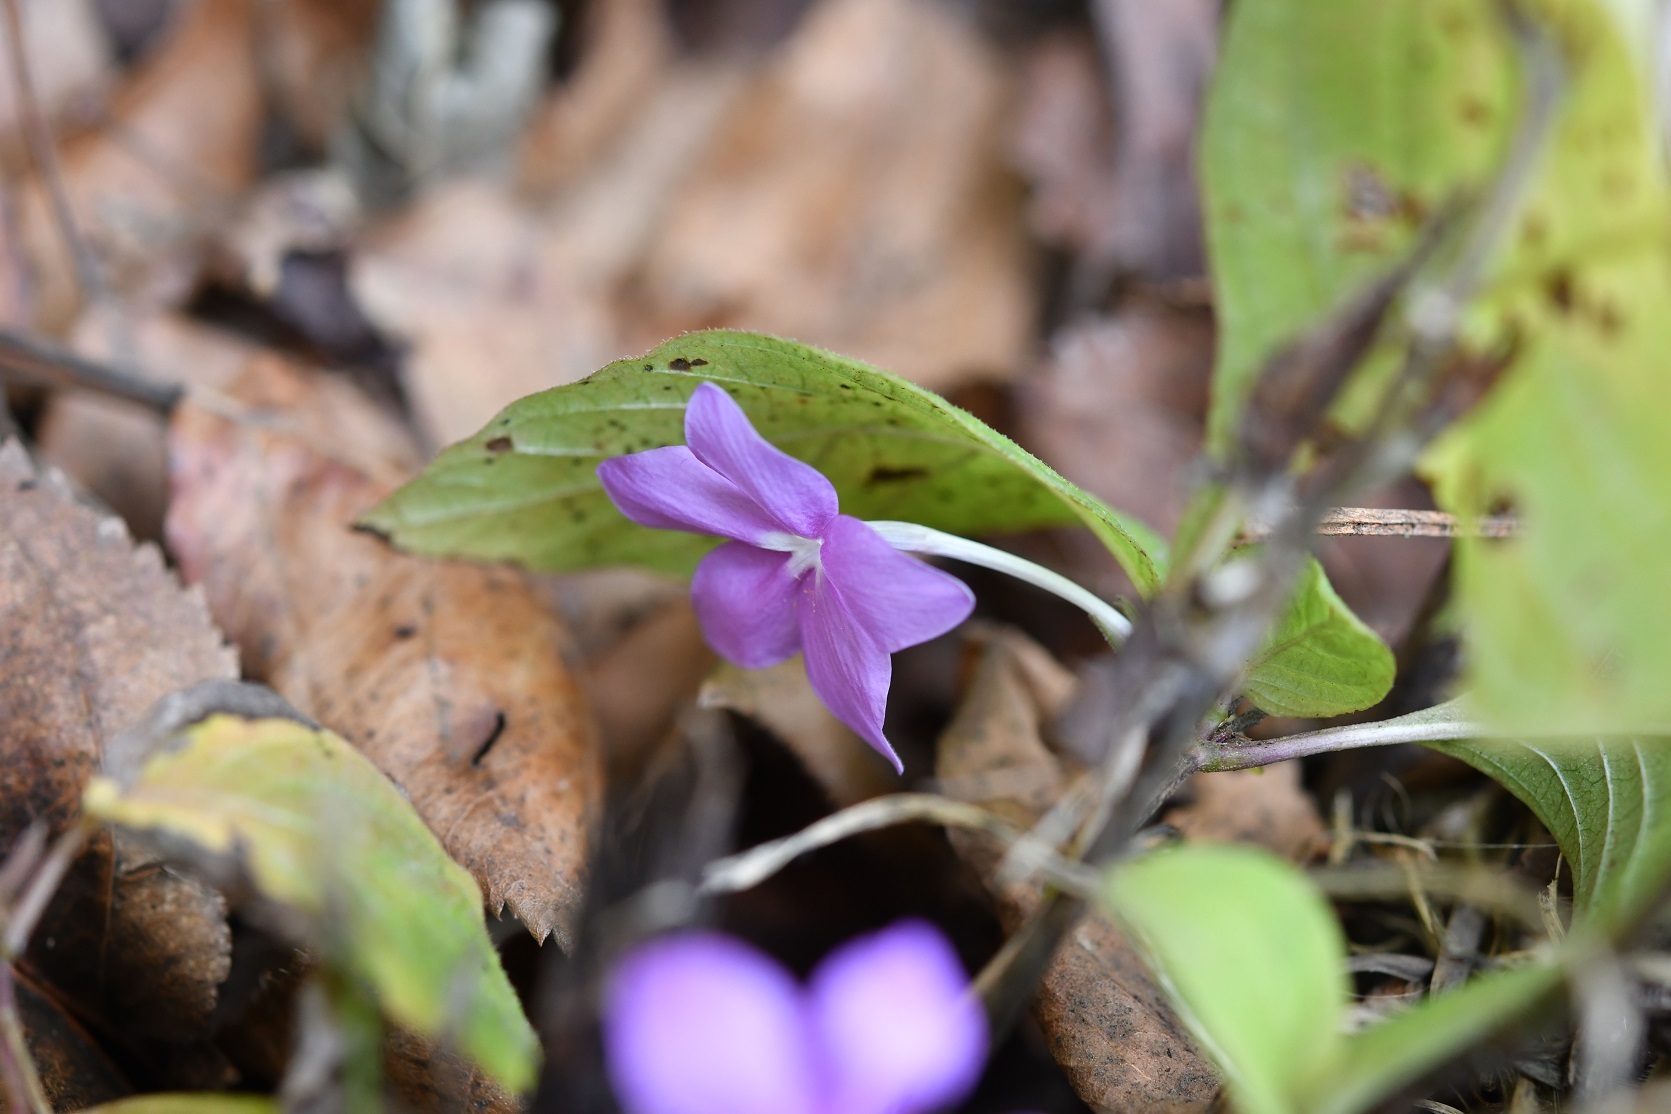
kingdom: Plantae
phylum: Tracheophyta
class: Magnoliopsida
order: Lamiales
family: Acanthaceae
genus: Pseuderanthemum
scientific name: Pseuderanthemum praecox
